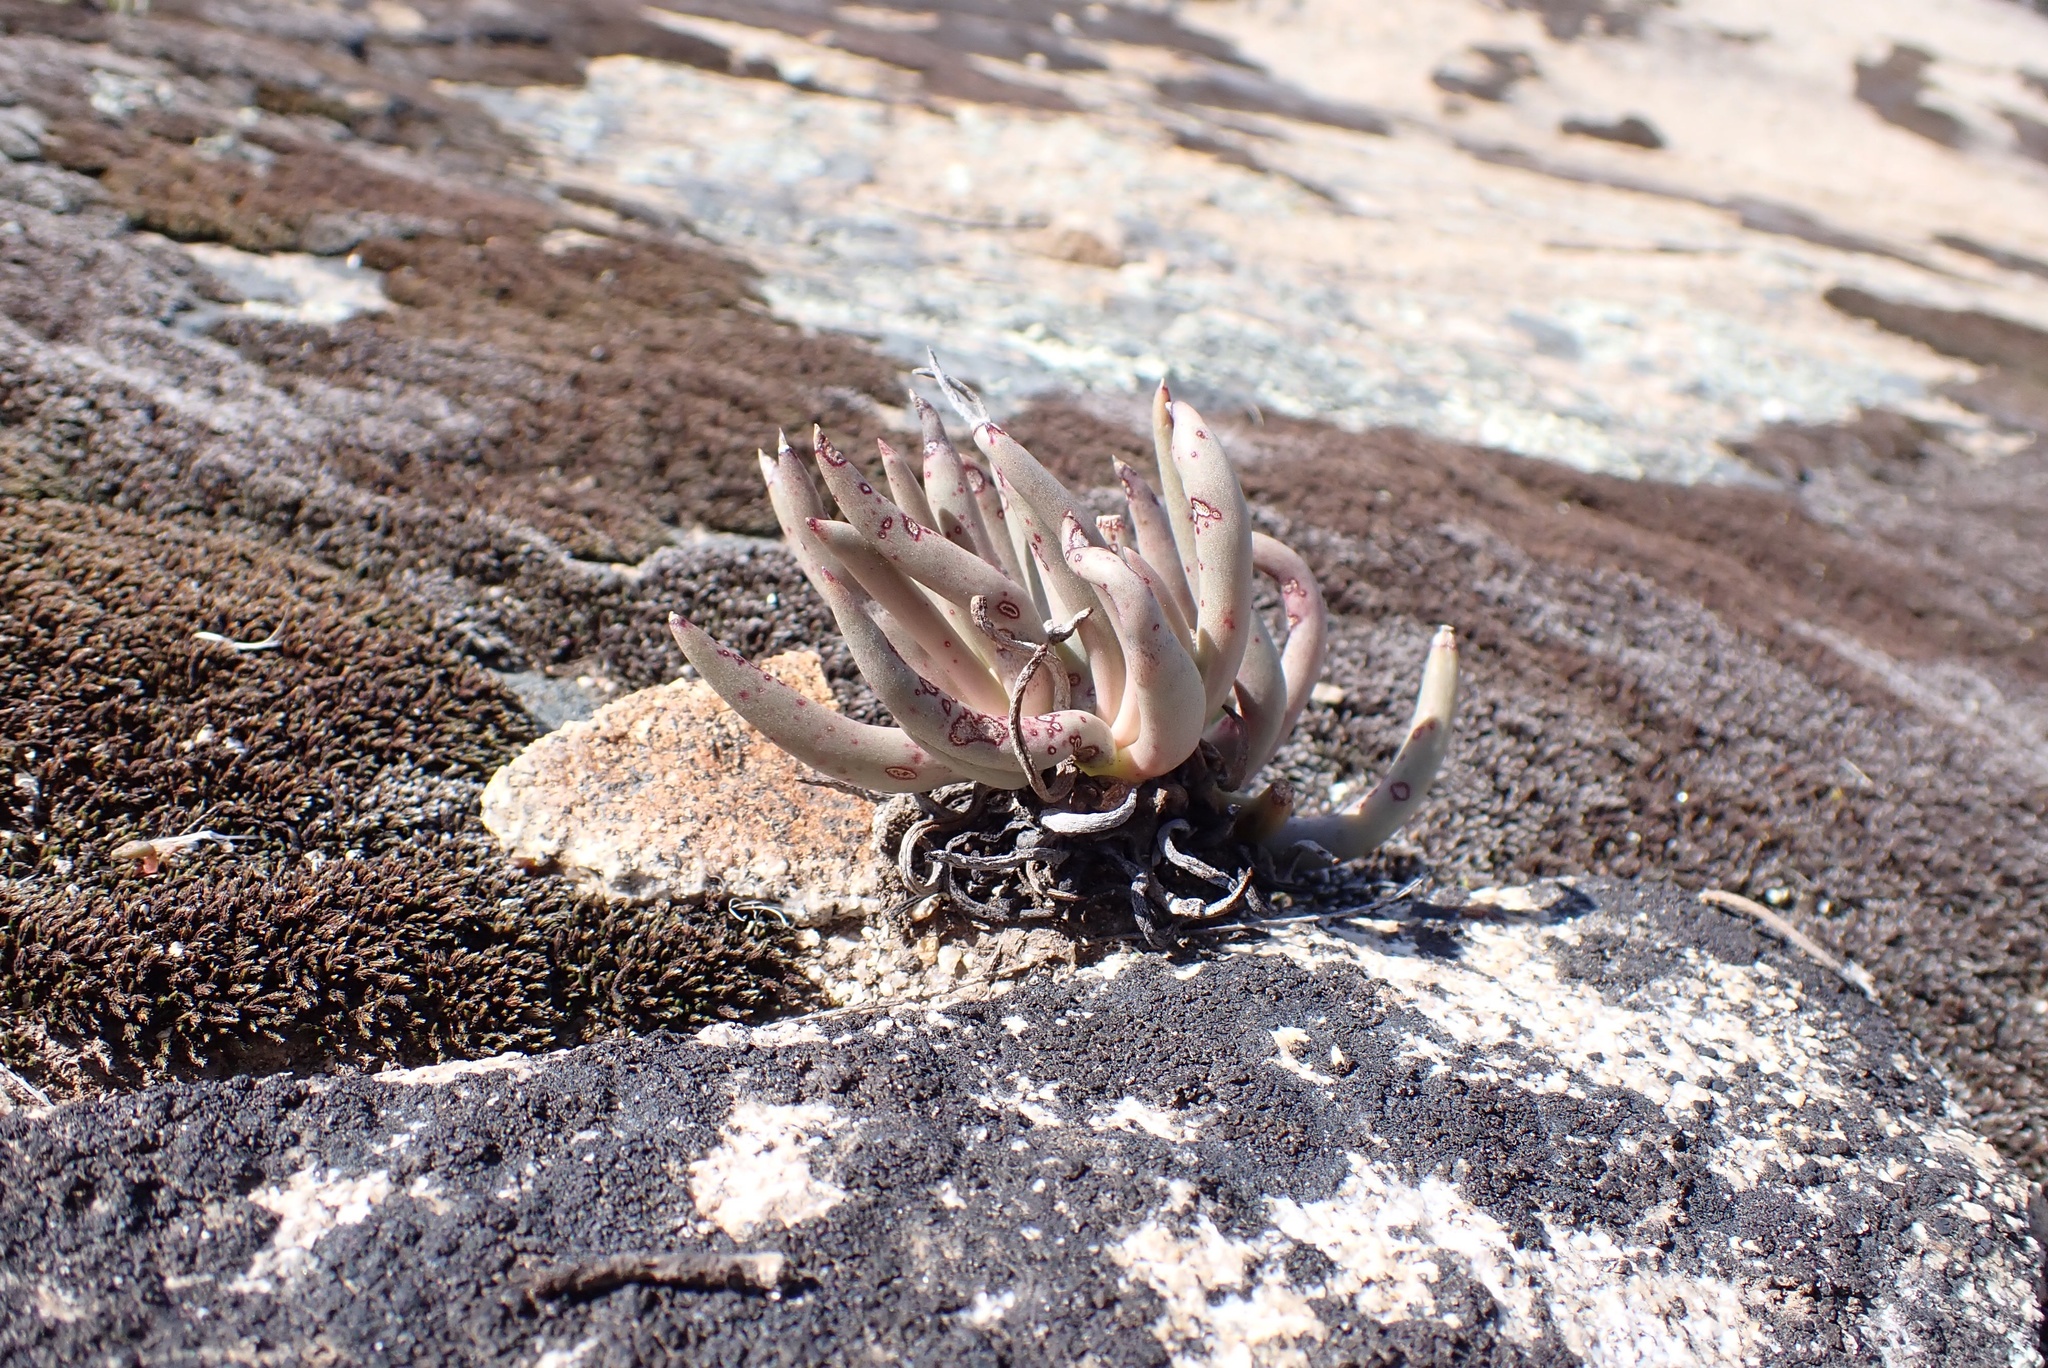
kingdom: Plantae
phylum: Tracheophyta
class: Magnoliopsida
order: Saxifragales
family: Crassulaceae
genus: Dudleya
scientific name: Dudleya edulis
